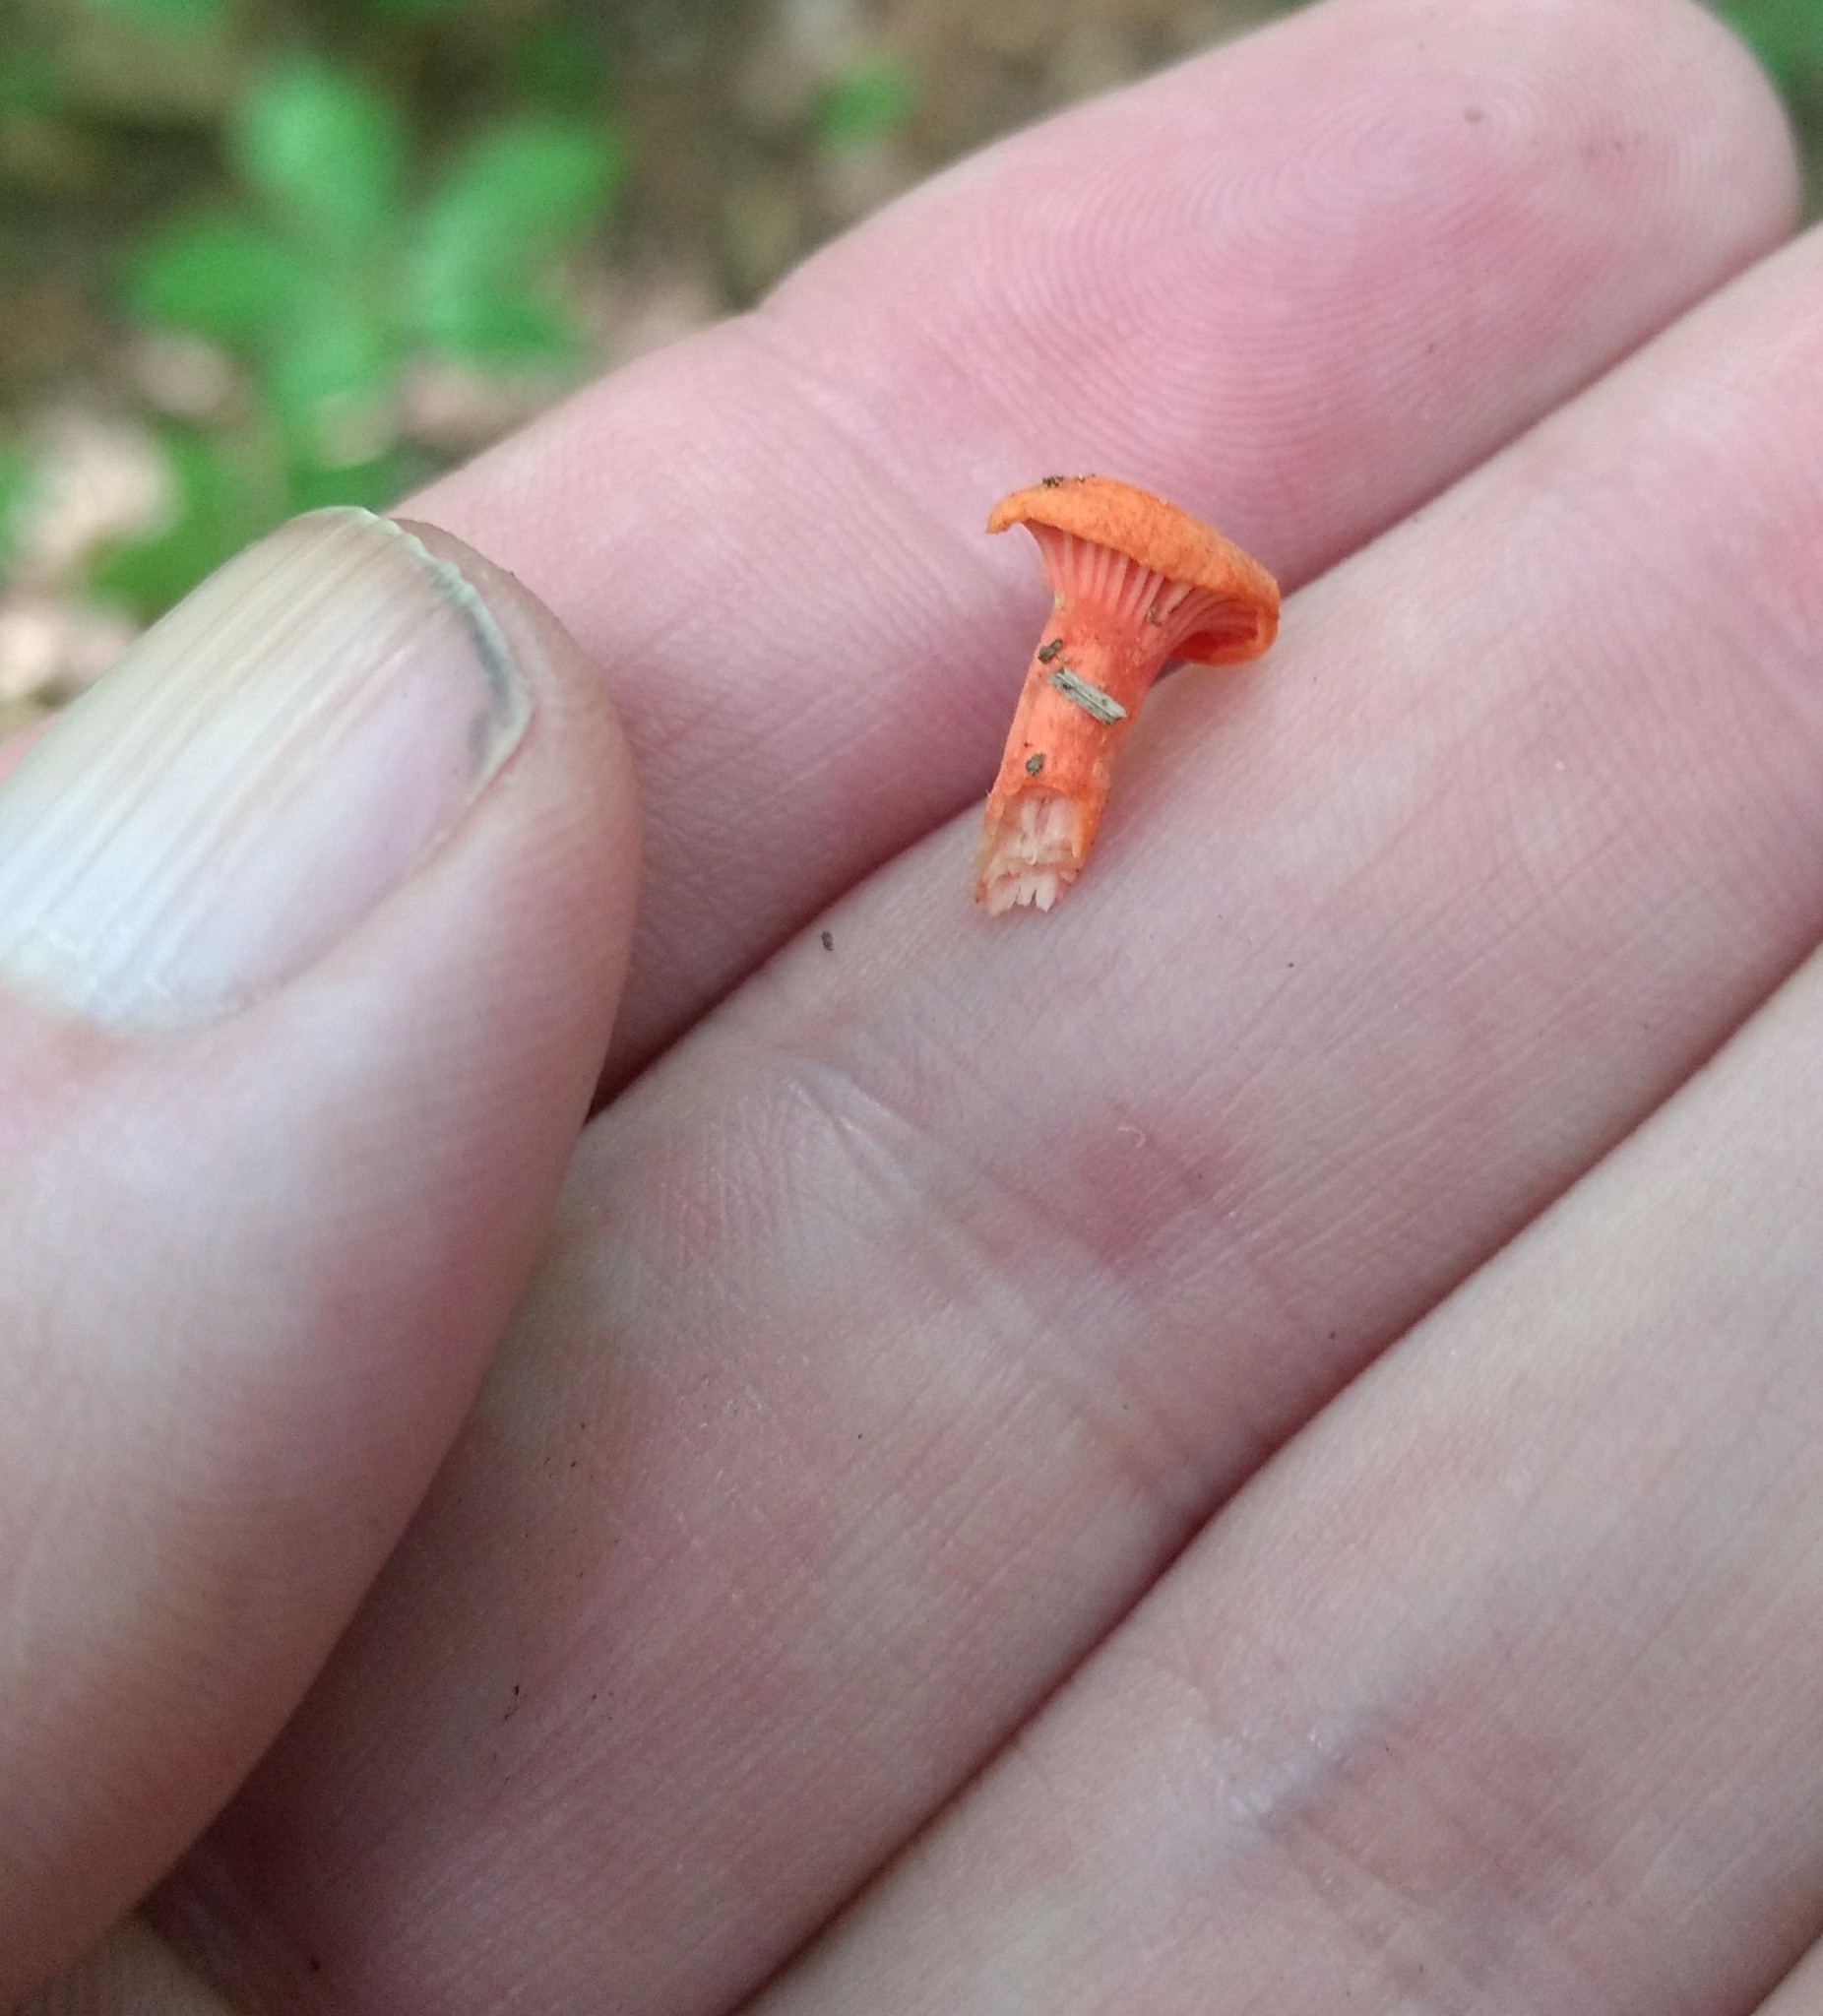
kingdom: Fungi
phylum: Basidiomycota
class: Agaricomycetes
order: Cantharellales
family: Hydnaceae
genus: Cantharellus
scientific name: Cantharellus cinnabarinus
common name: Cinnabar chanterelle
